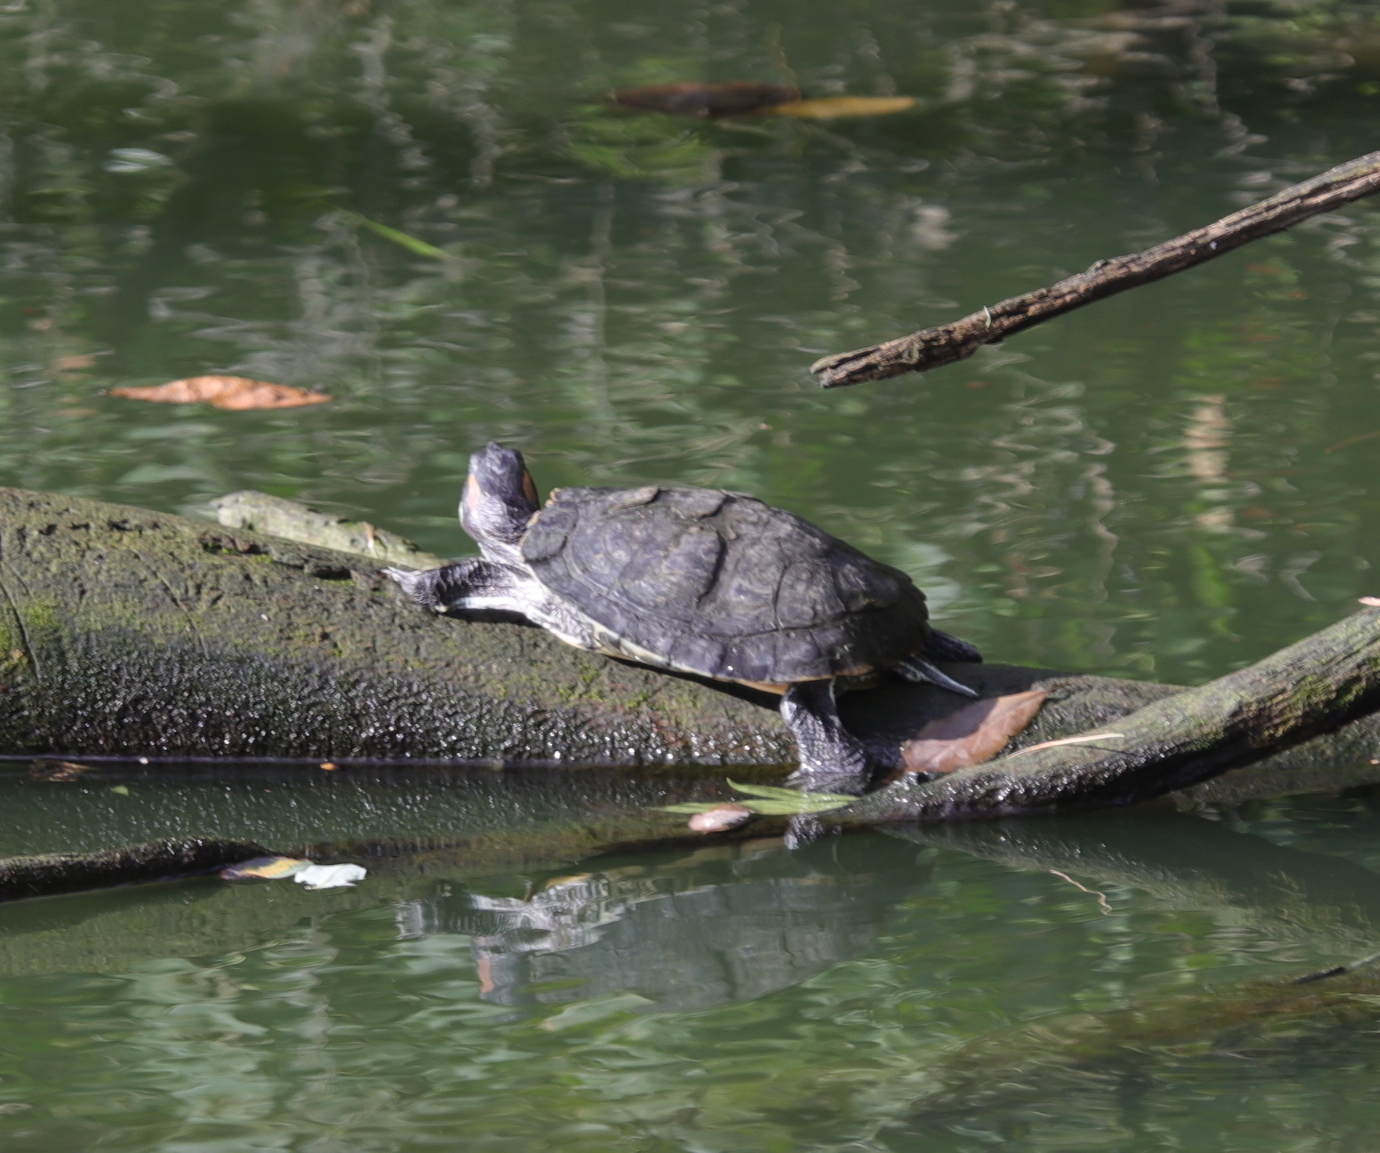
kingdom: Animalia
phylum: Chordata
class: Testudines
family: Emydidae
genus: Trachemys
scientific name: Trachemys scripta
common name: Slider
